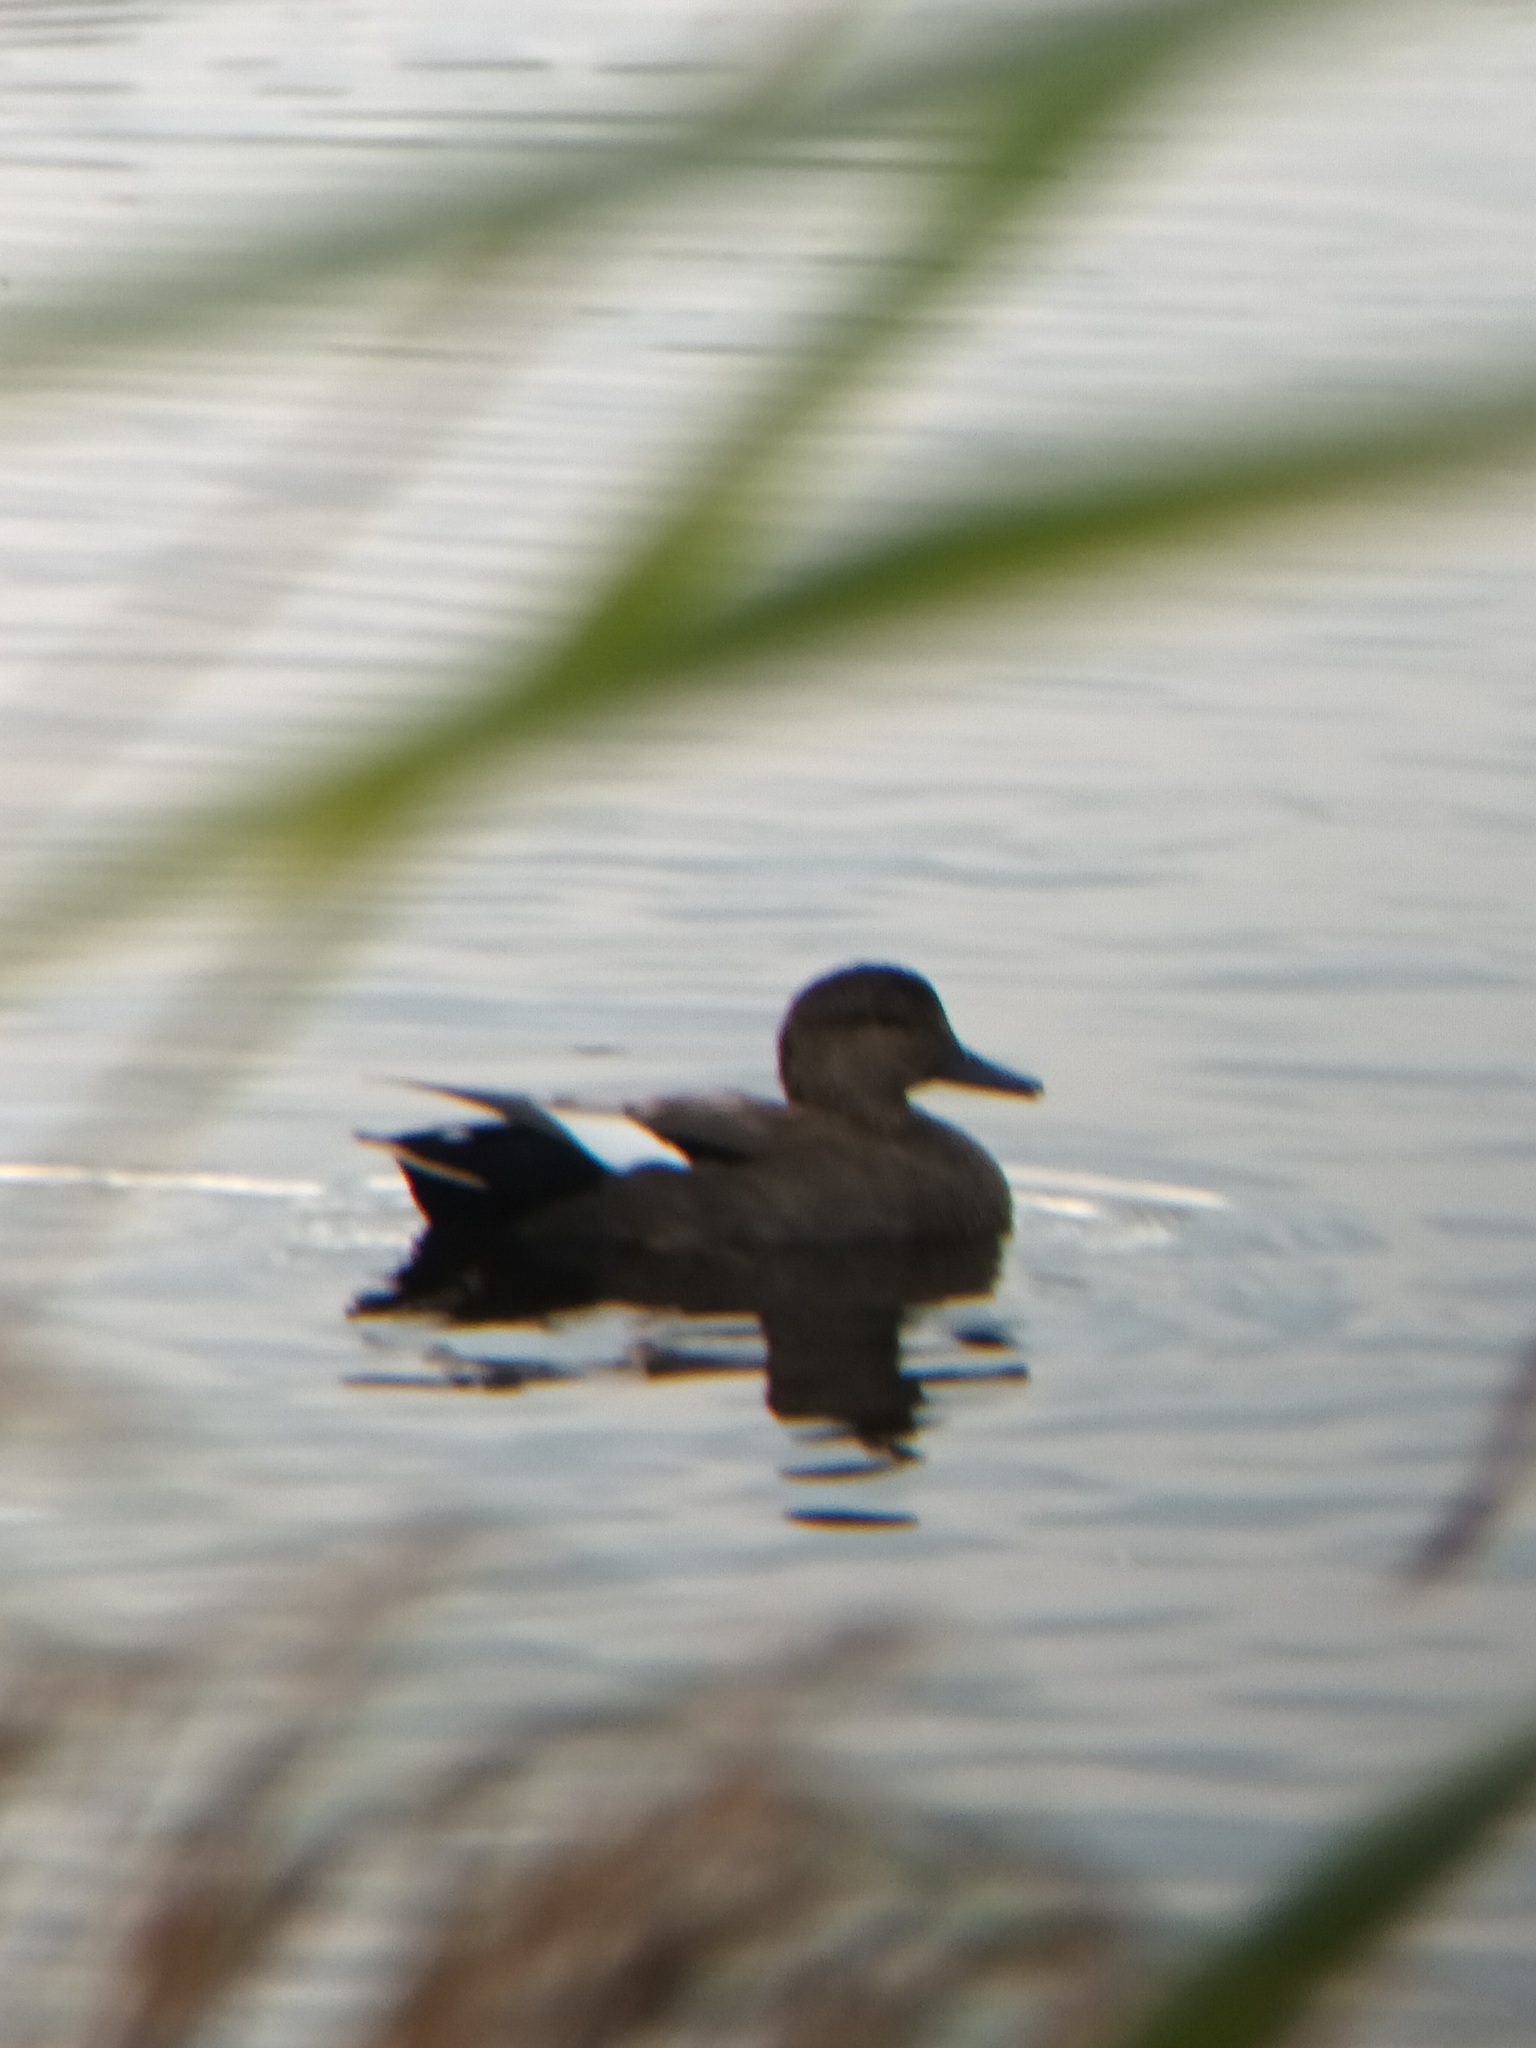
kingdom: Animalia
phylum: Chordata
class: Aves
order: Anseriformes
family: Anatidae
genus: Mareca
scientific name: Mareca strepera
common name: Gadwall
